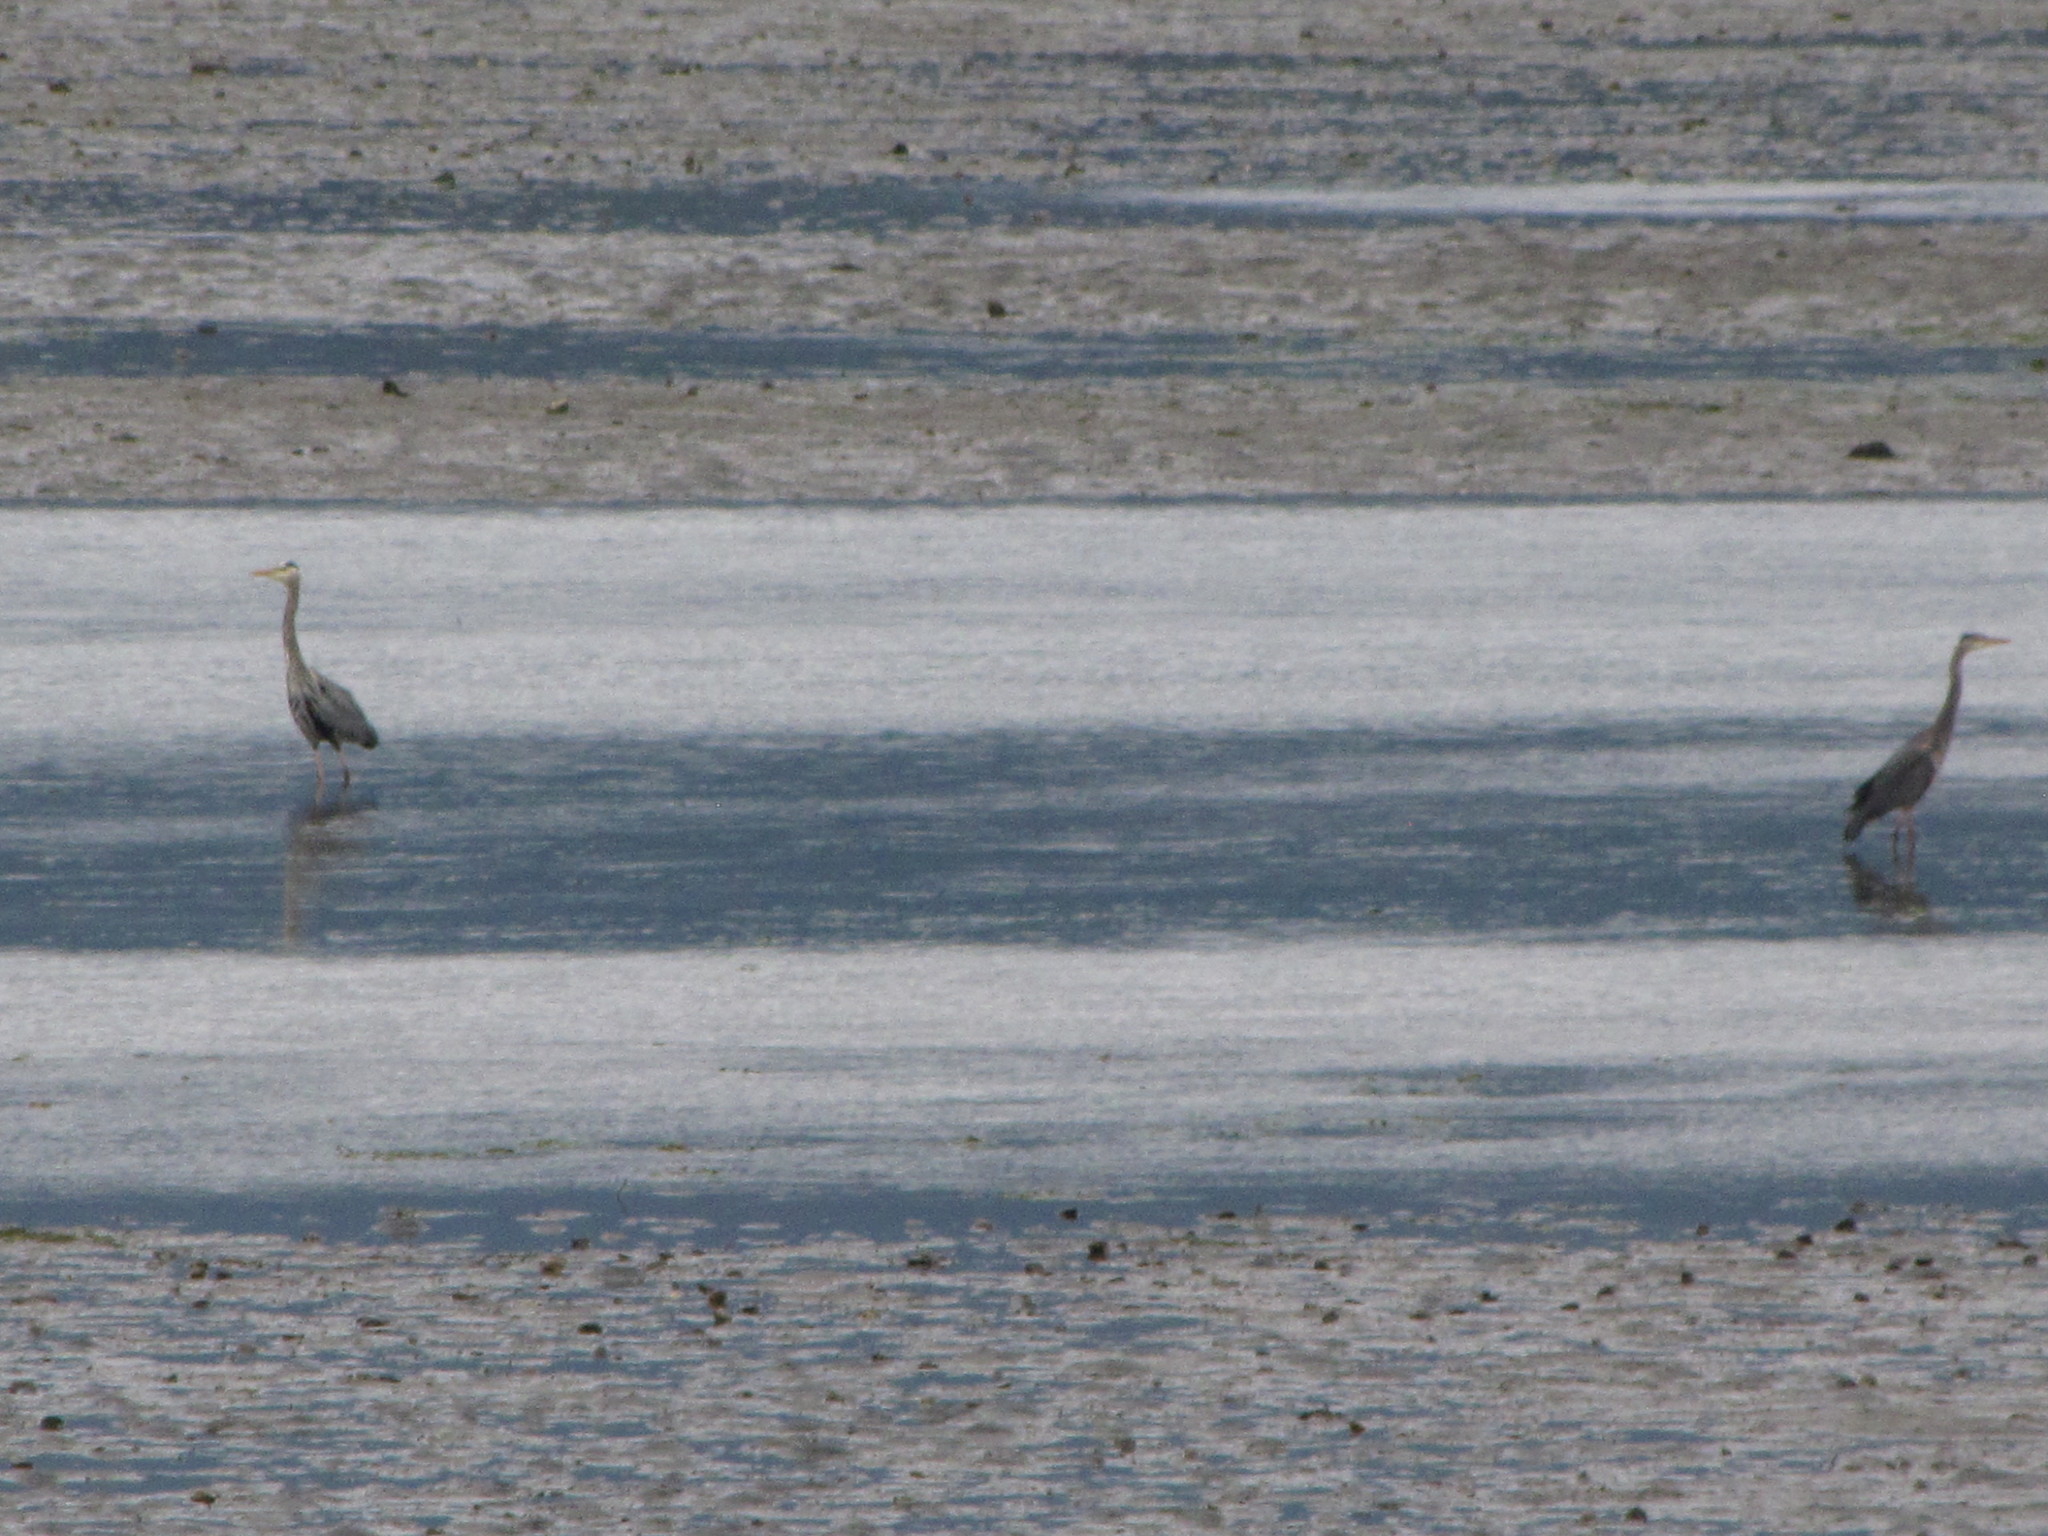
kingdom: Animalia
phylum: Chordata
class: Aves
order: Pelecaniformes
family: Ardeidae
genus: Ardea
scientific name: Ardea herodias
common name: Great blue heron
